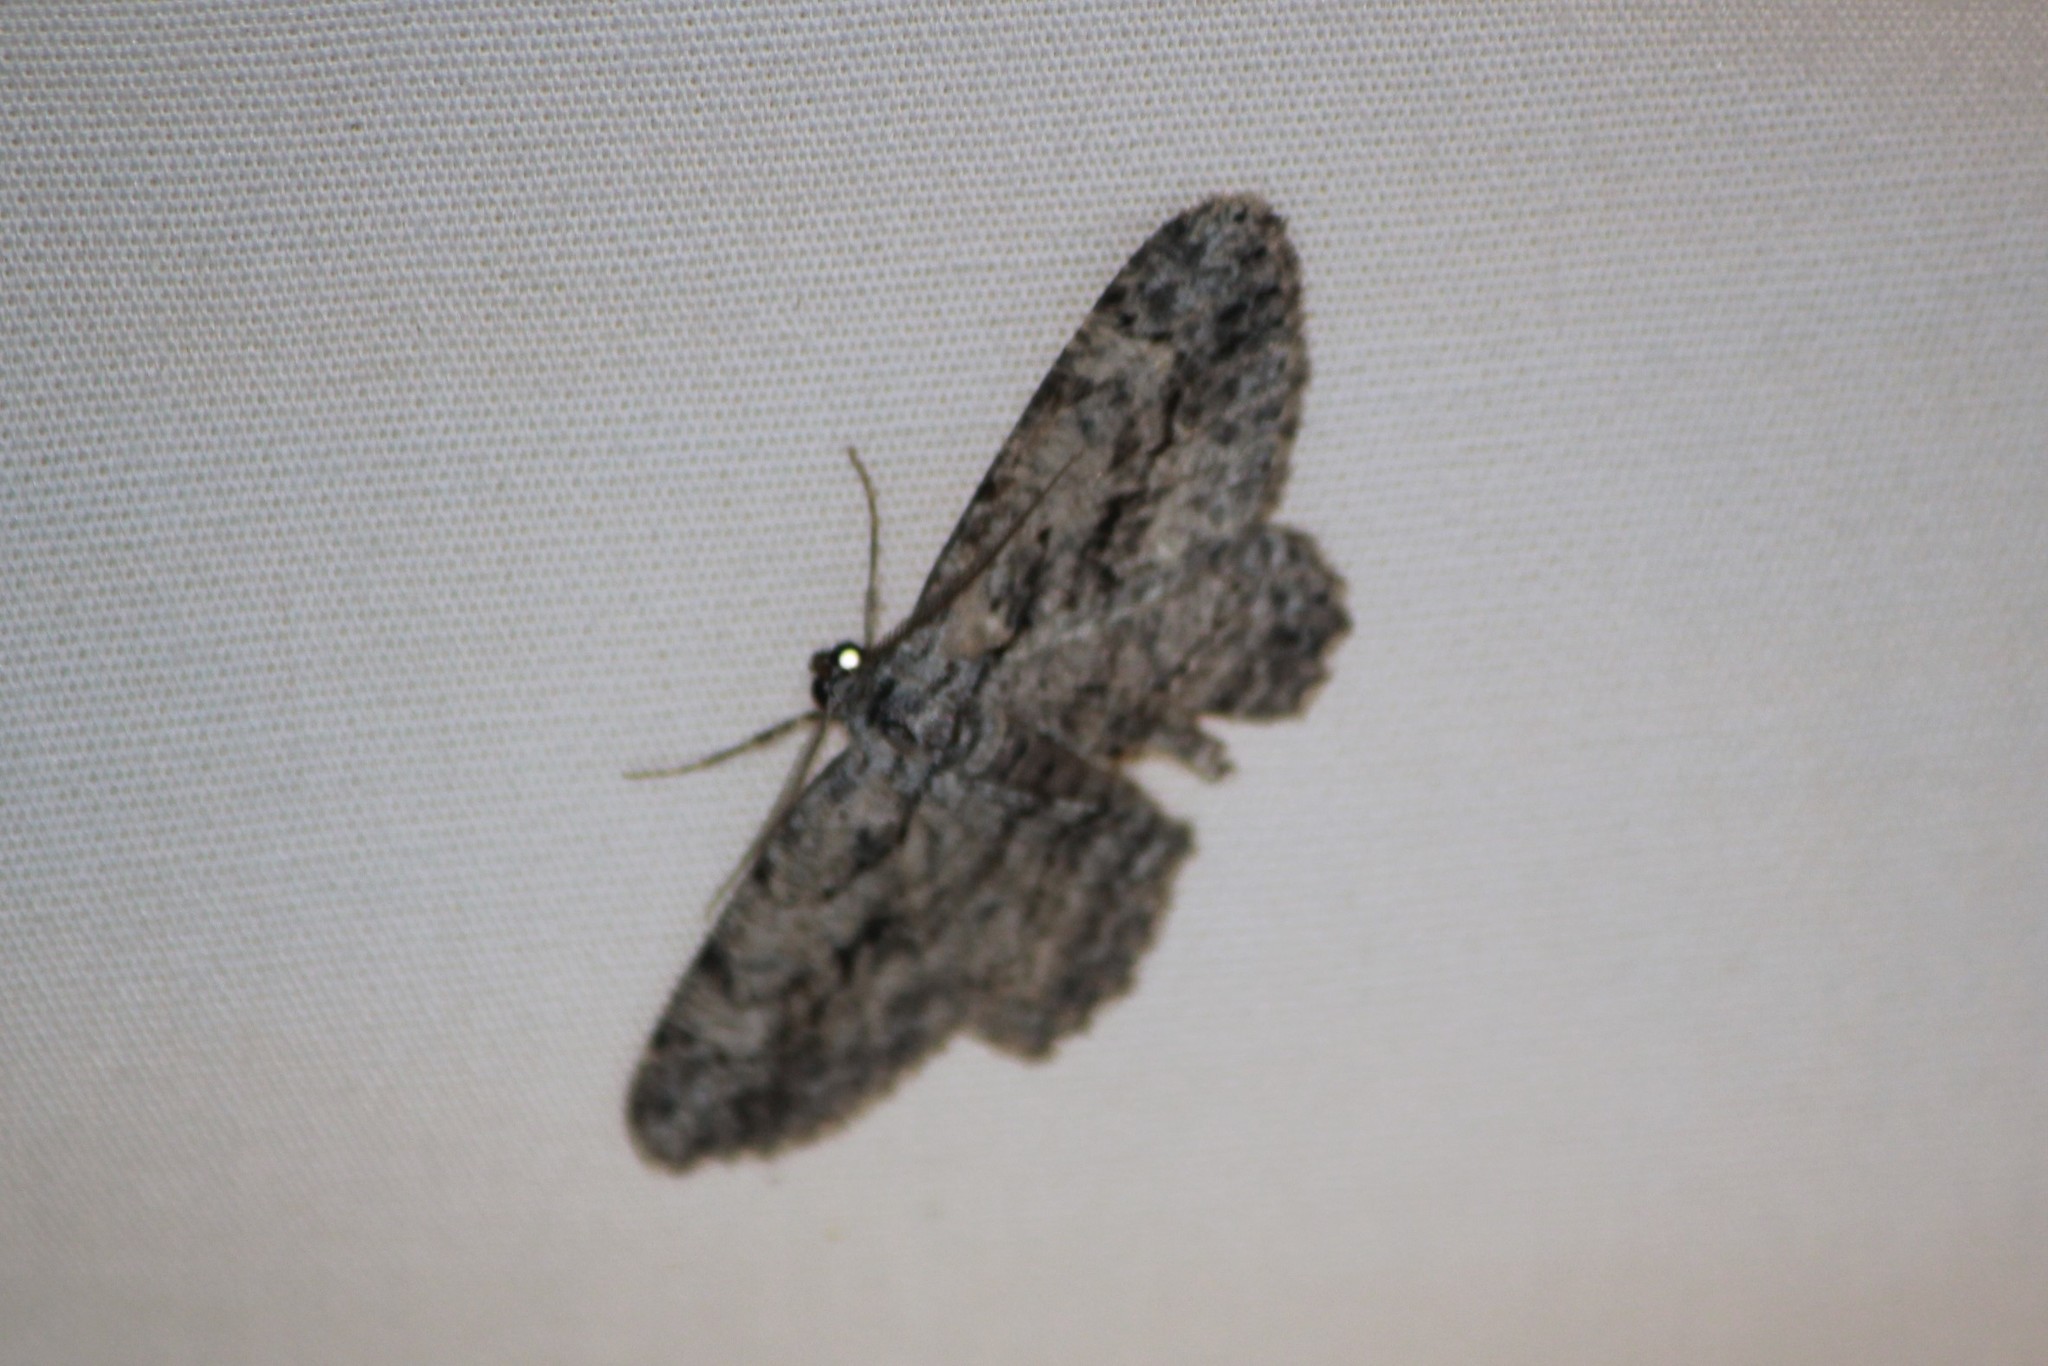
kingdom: Animalia
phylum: Arthropoda
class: Insecta
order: Lepidoptera
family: Geometridae
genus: Anavitrinella
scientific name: Anavitrinella pampinaria
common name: Common gray
